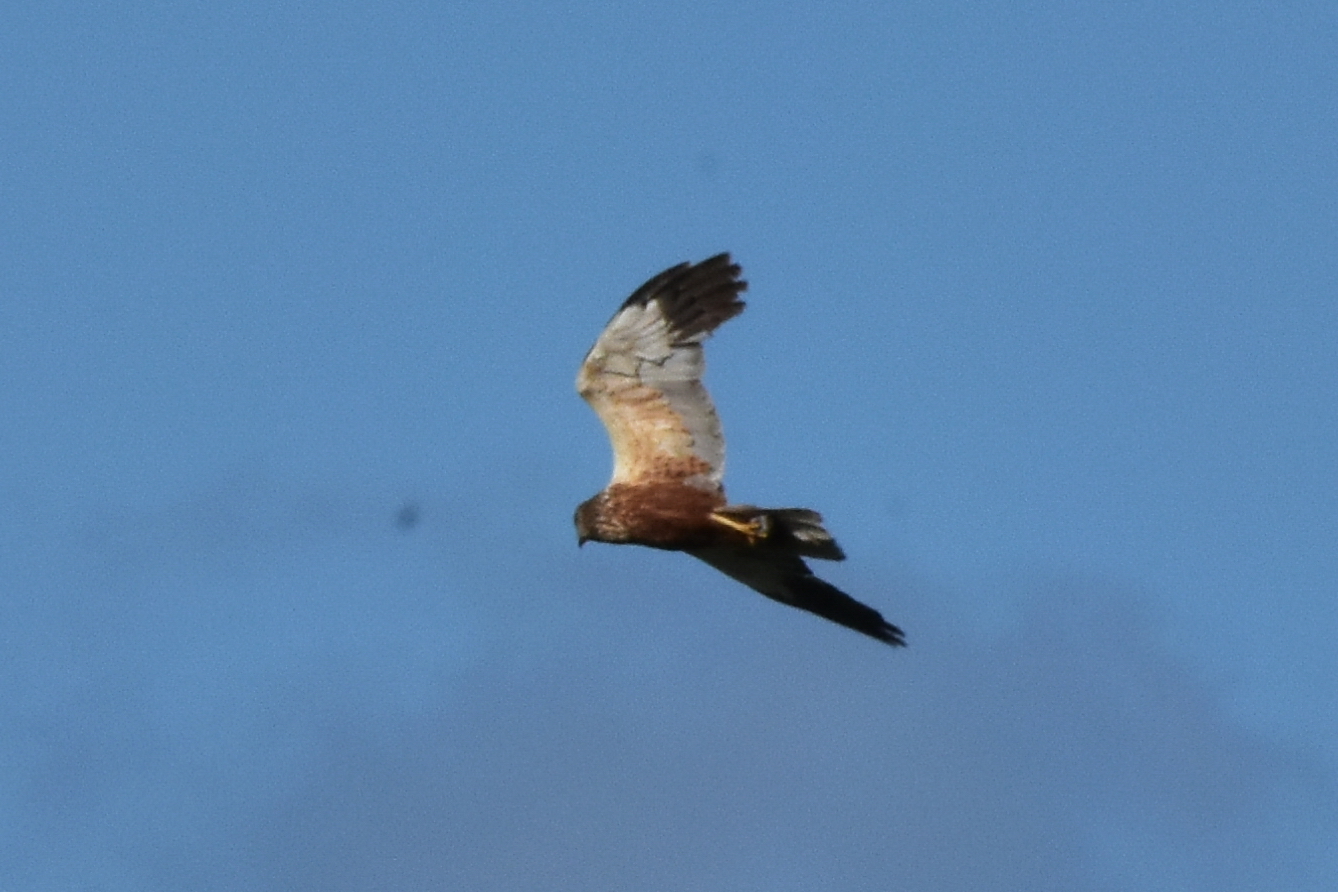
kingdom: Animalia
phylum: Chordata
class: Aves
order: Accipitriformes
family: Accipitridae
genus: Circus
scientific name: Circus aeruginosus
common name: Western marsh harrier
